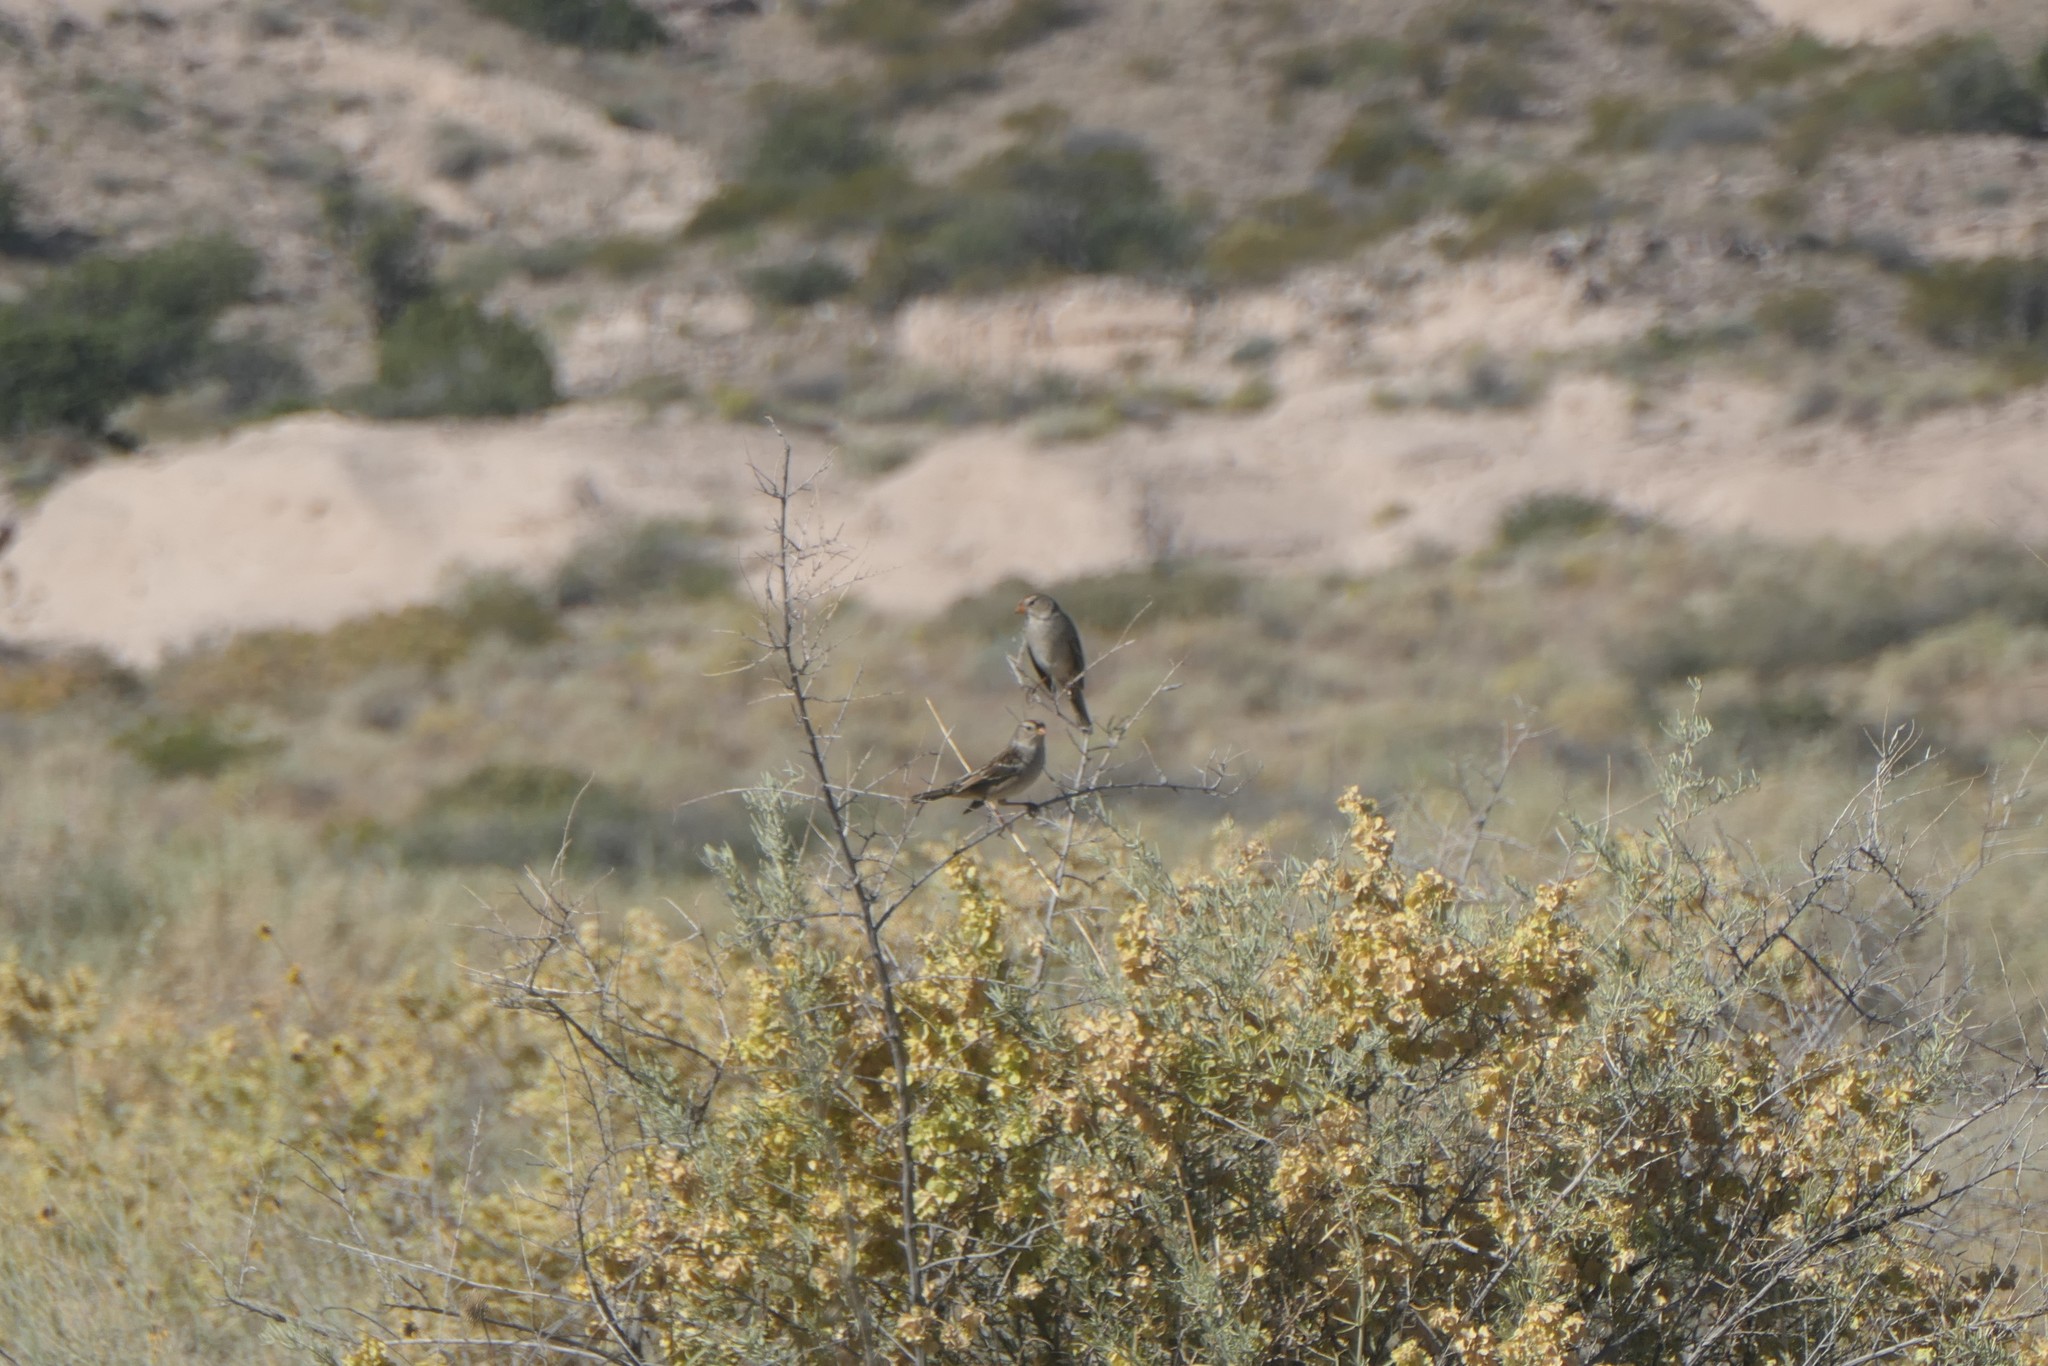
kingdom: Animalia
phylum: Chordata
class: Aves
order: Passeriformes
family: Passerellidae
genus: Zonotrichia
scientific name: Zonotrichia leucophrys
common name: White-crowned sparrow
